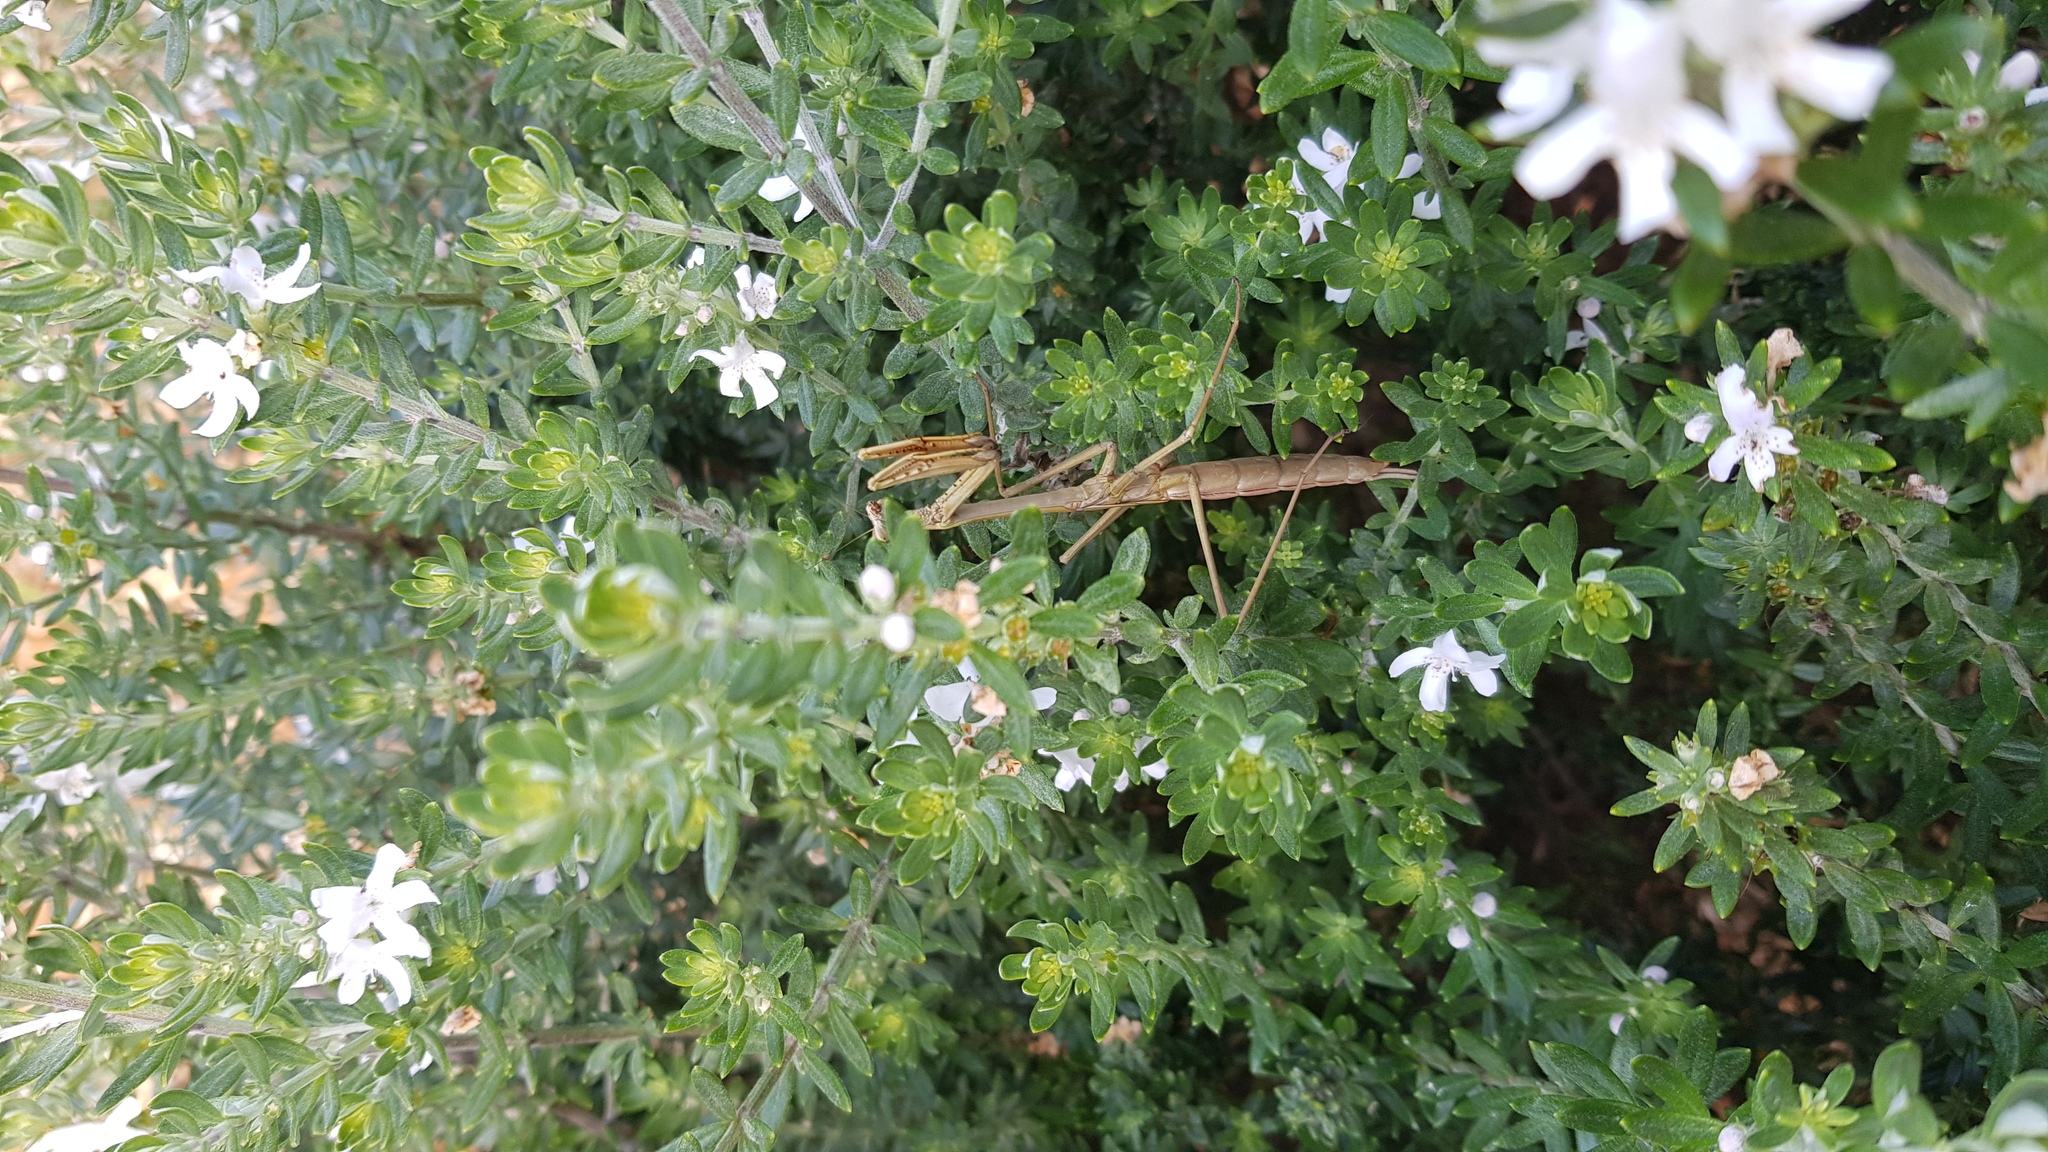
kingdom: Animalia
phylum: Arthropoda
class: Insecta
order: Mantodea
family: Mantidae
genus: Archimantis
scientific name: Archimantis latistyla
